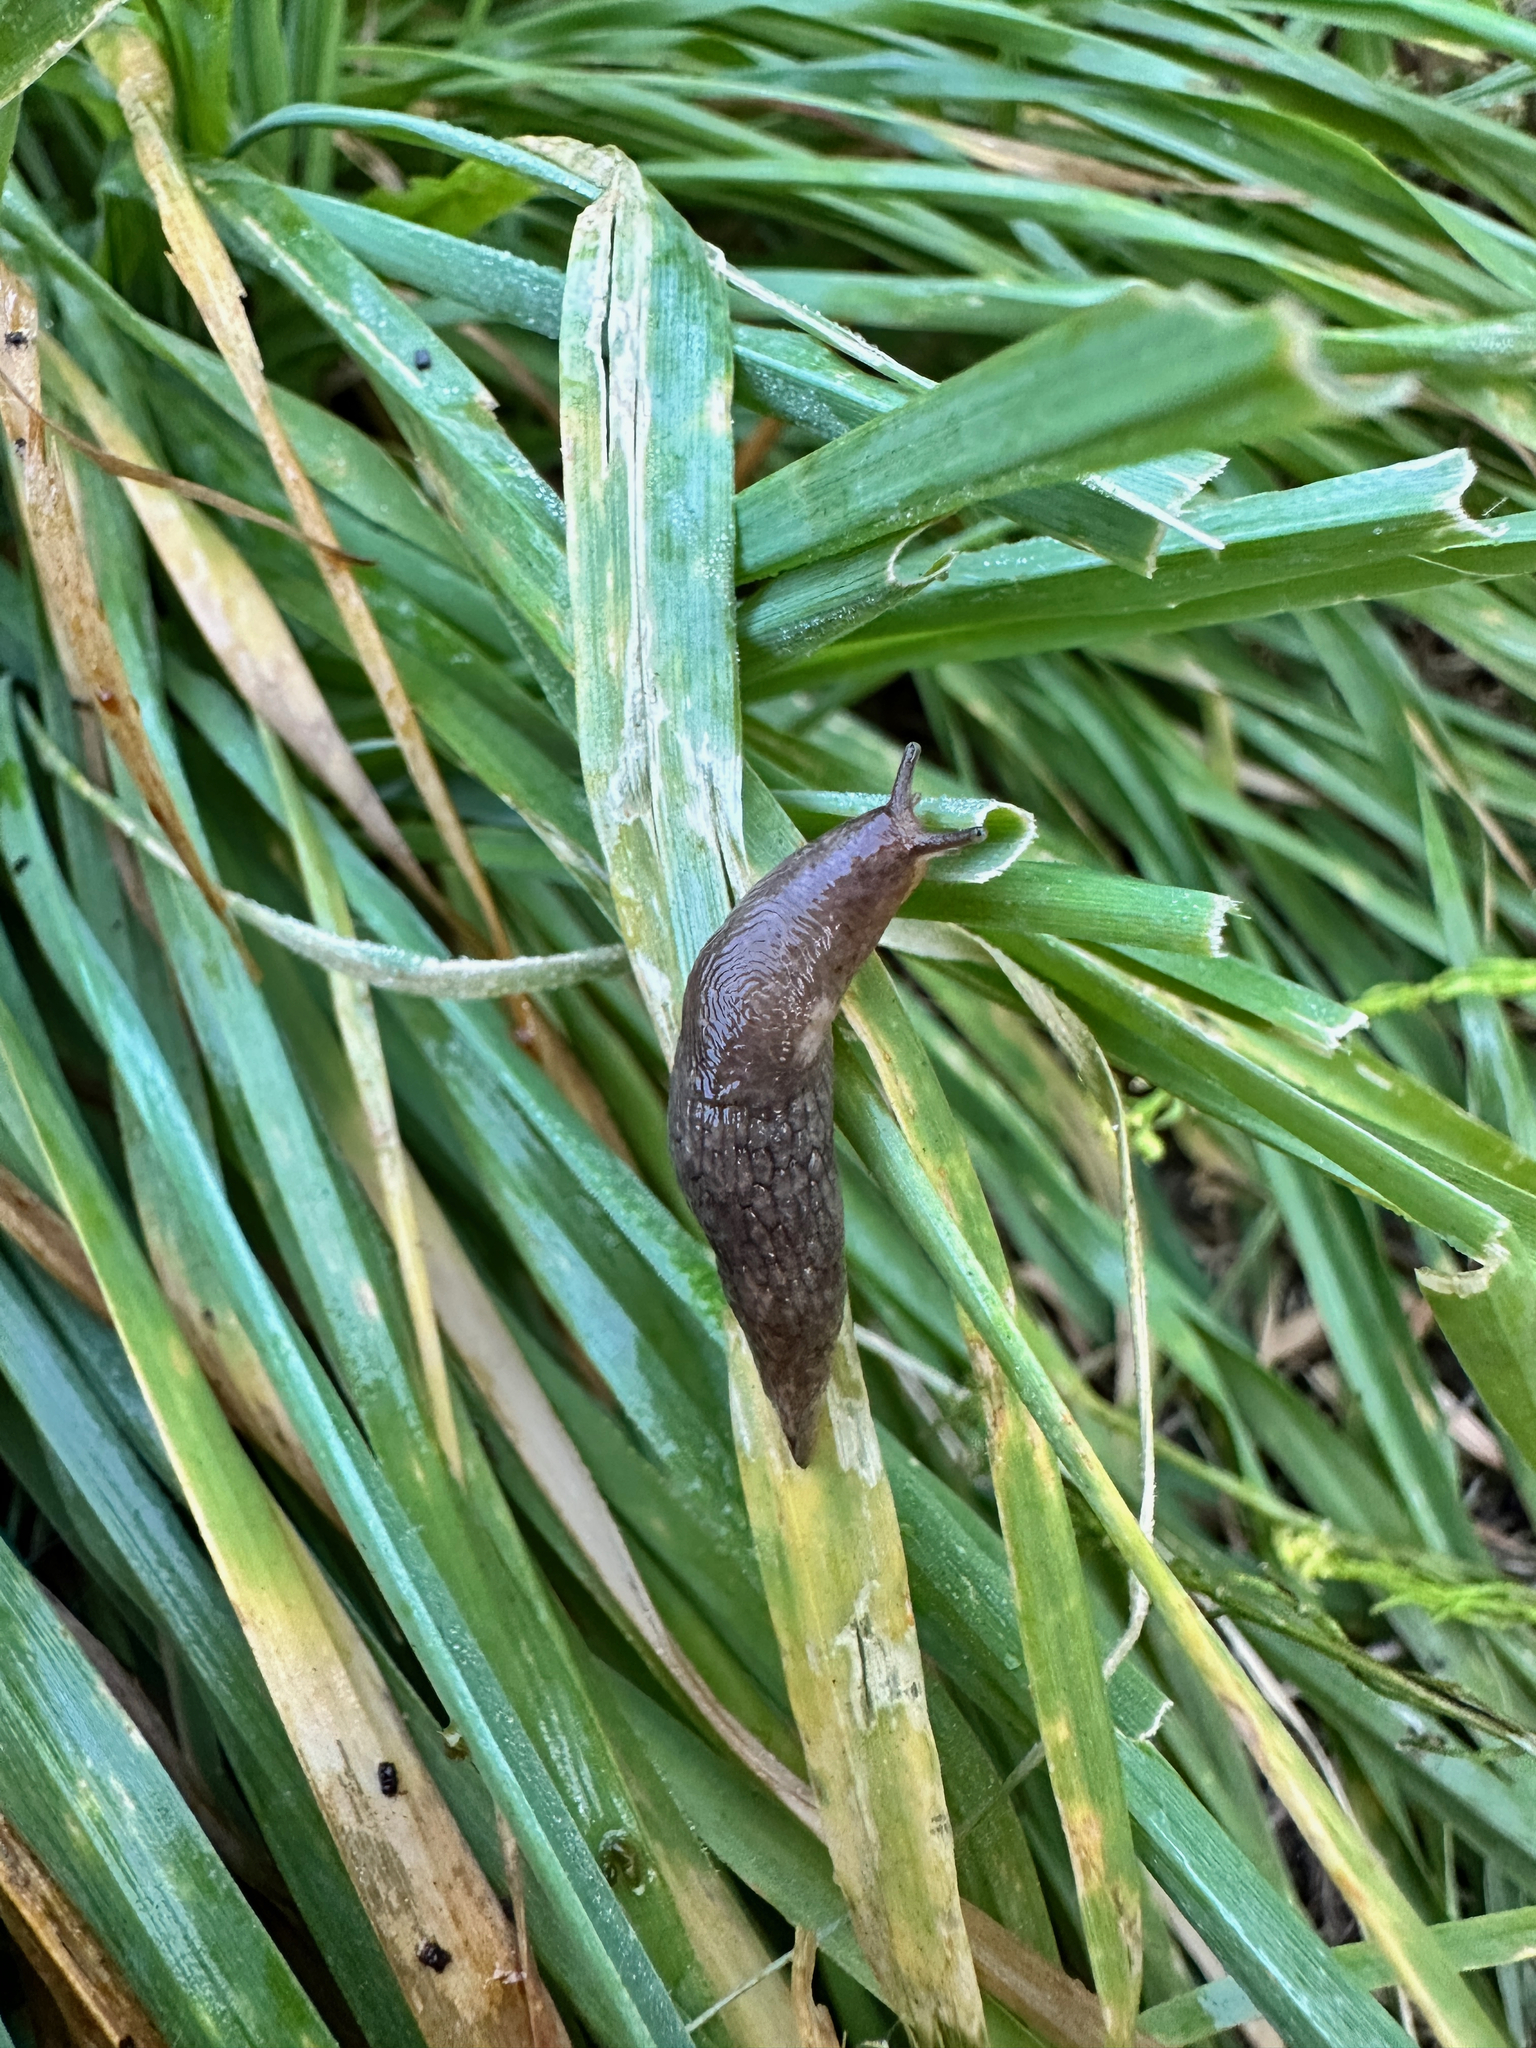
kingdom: Animalia
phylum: Mollusca
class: Gastropoda
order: Stylommatophora
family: Agriolimacidae
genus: Deroceras
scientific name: Deroceras reticulatum
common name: Gray field slug
